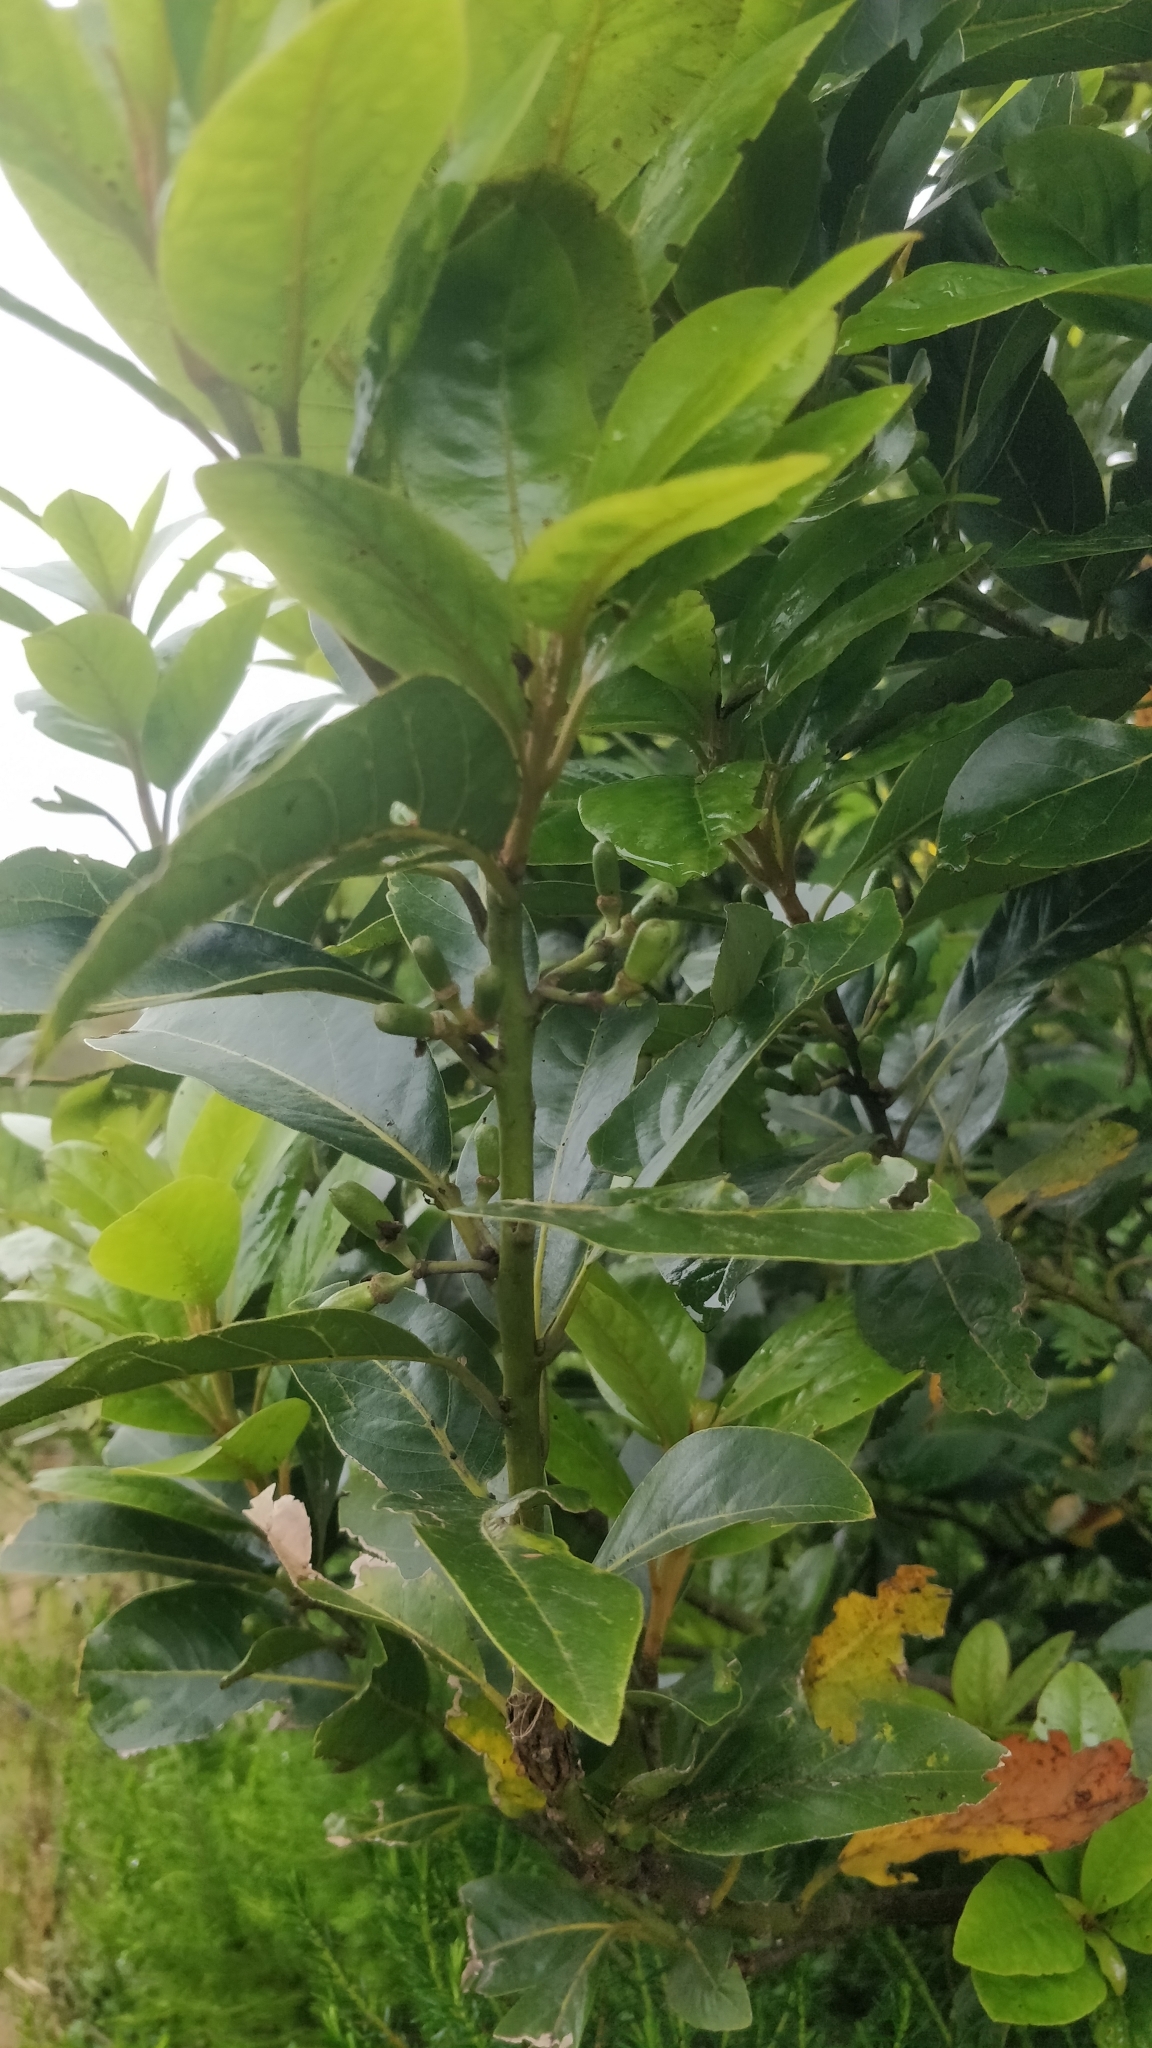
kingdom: Plantae
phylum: Tracheophyta
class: Magnoliopsida
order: Laurales
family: Lauraceae
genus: Laurus
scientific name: Laurus novocanariensis
